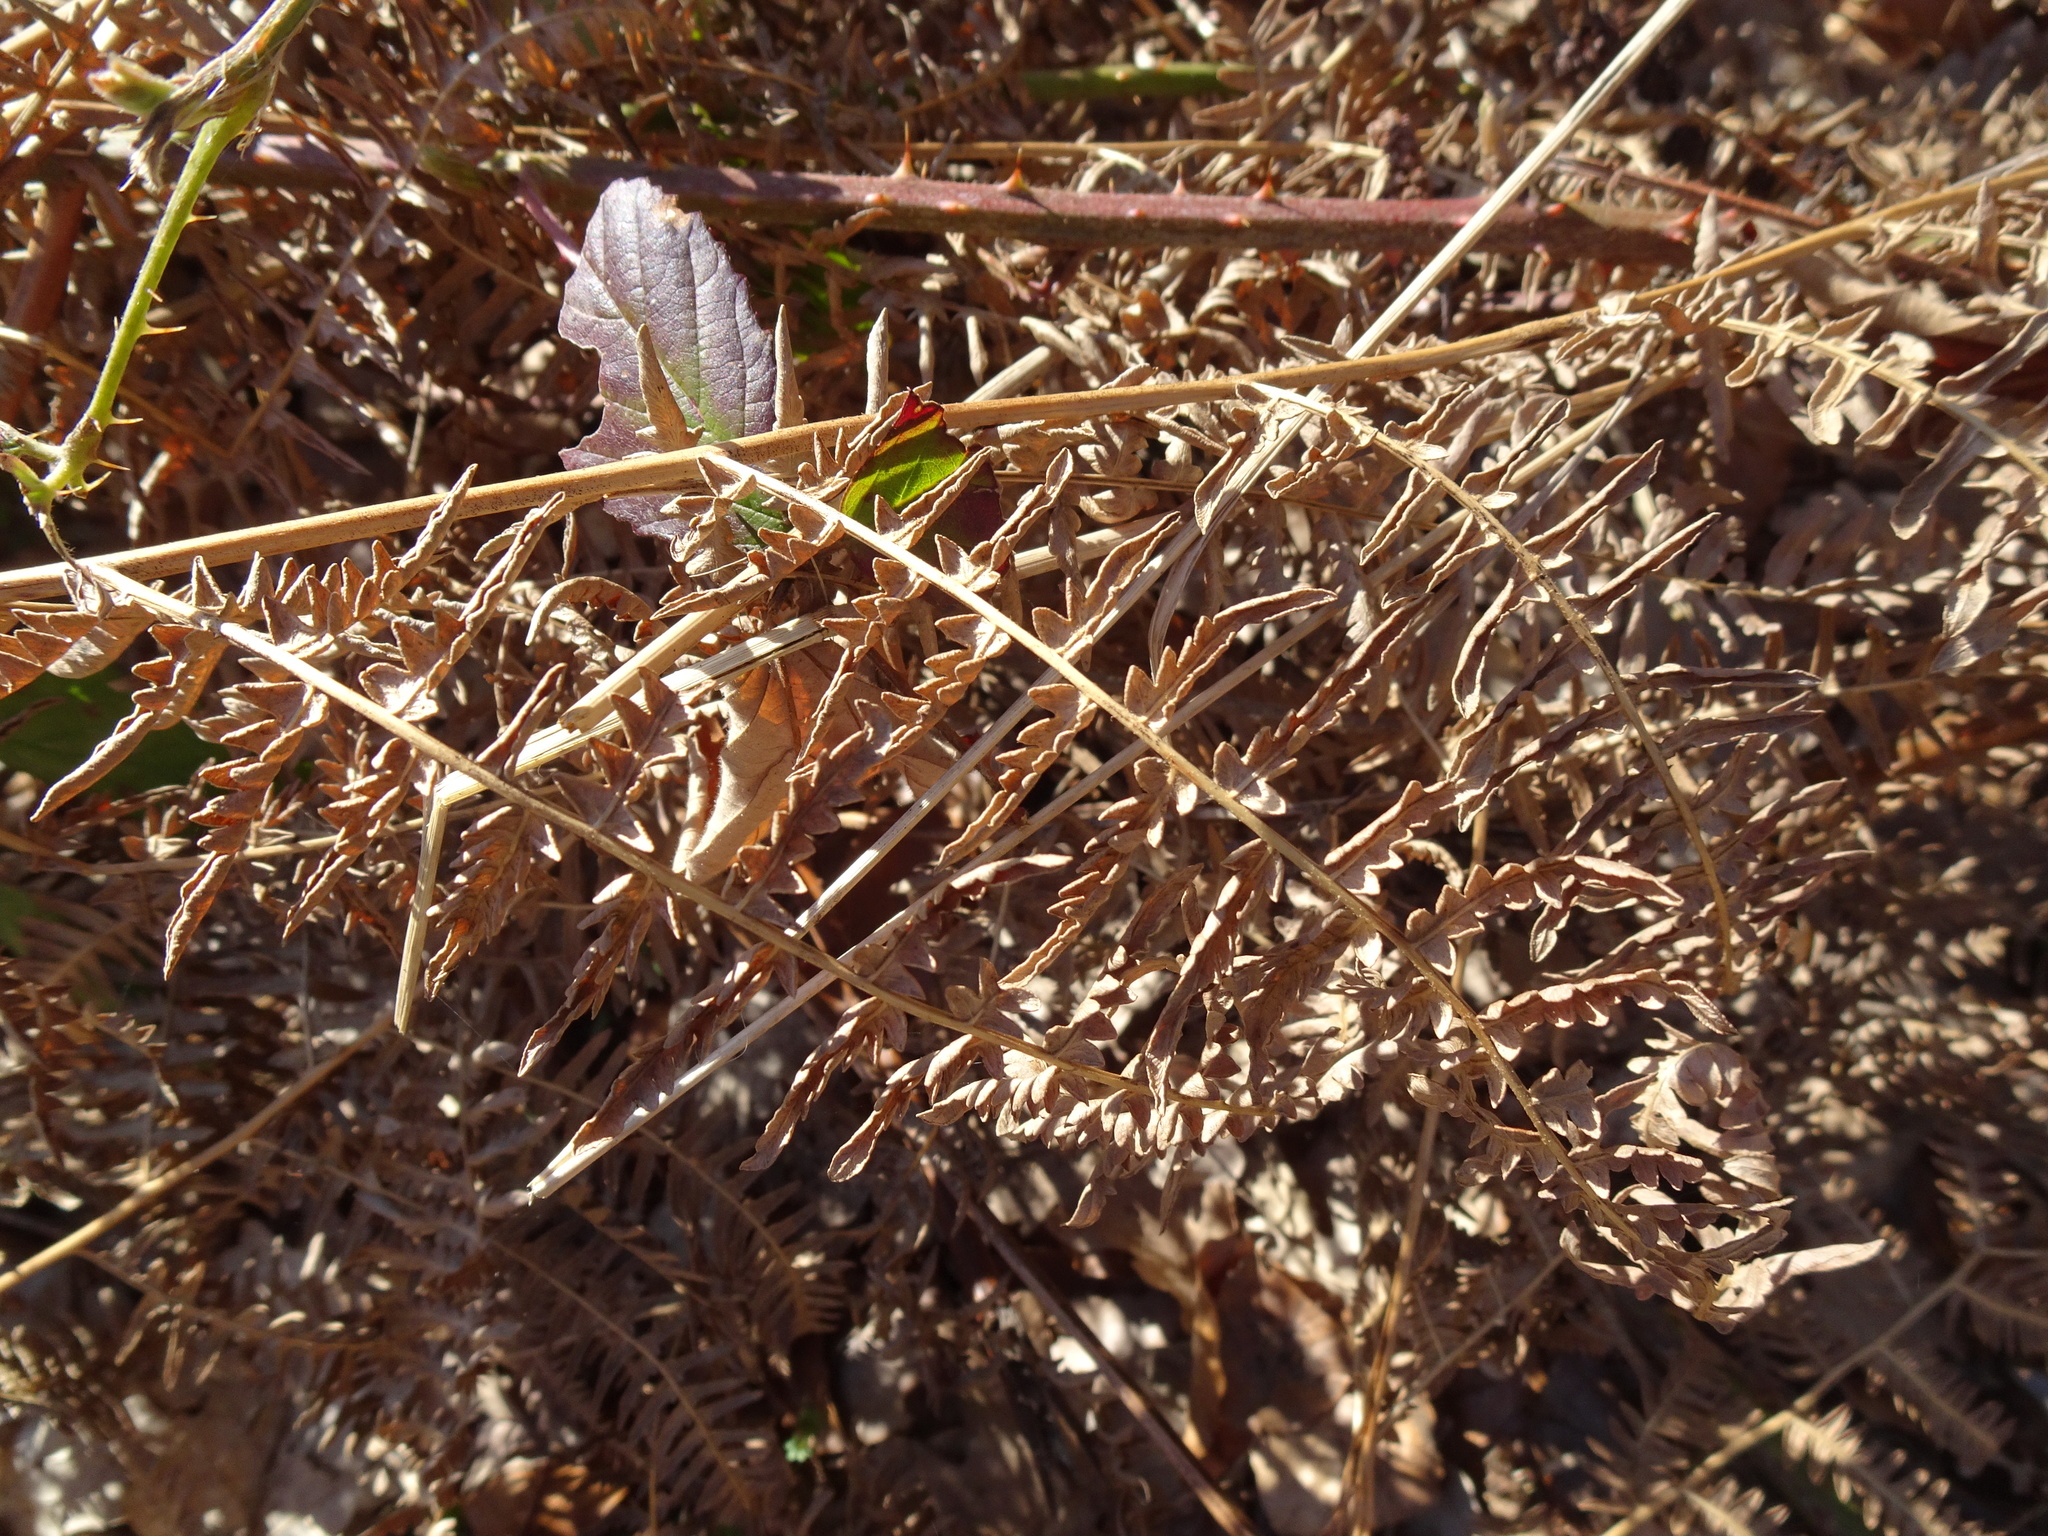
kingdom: Plantae
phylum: Tracheophyta
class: Polypodiopsida
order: Polypodiales
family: Dennstaedtiaceae
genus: Pteridium
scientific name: Pteridium aquilinum
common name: Bracken
